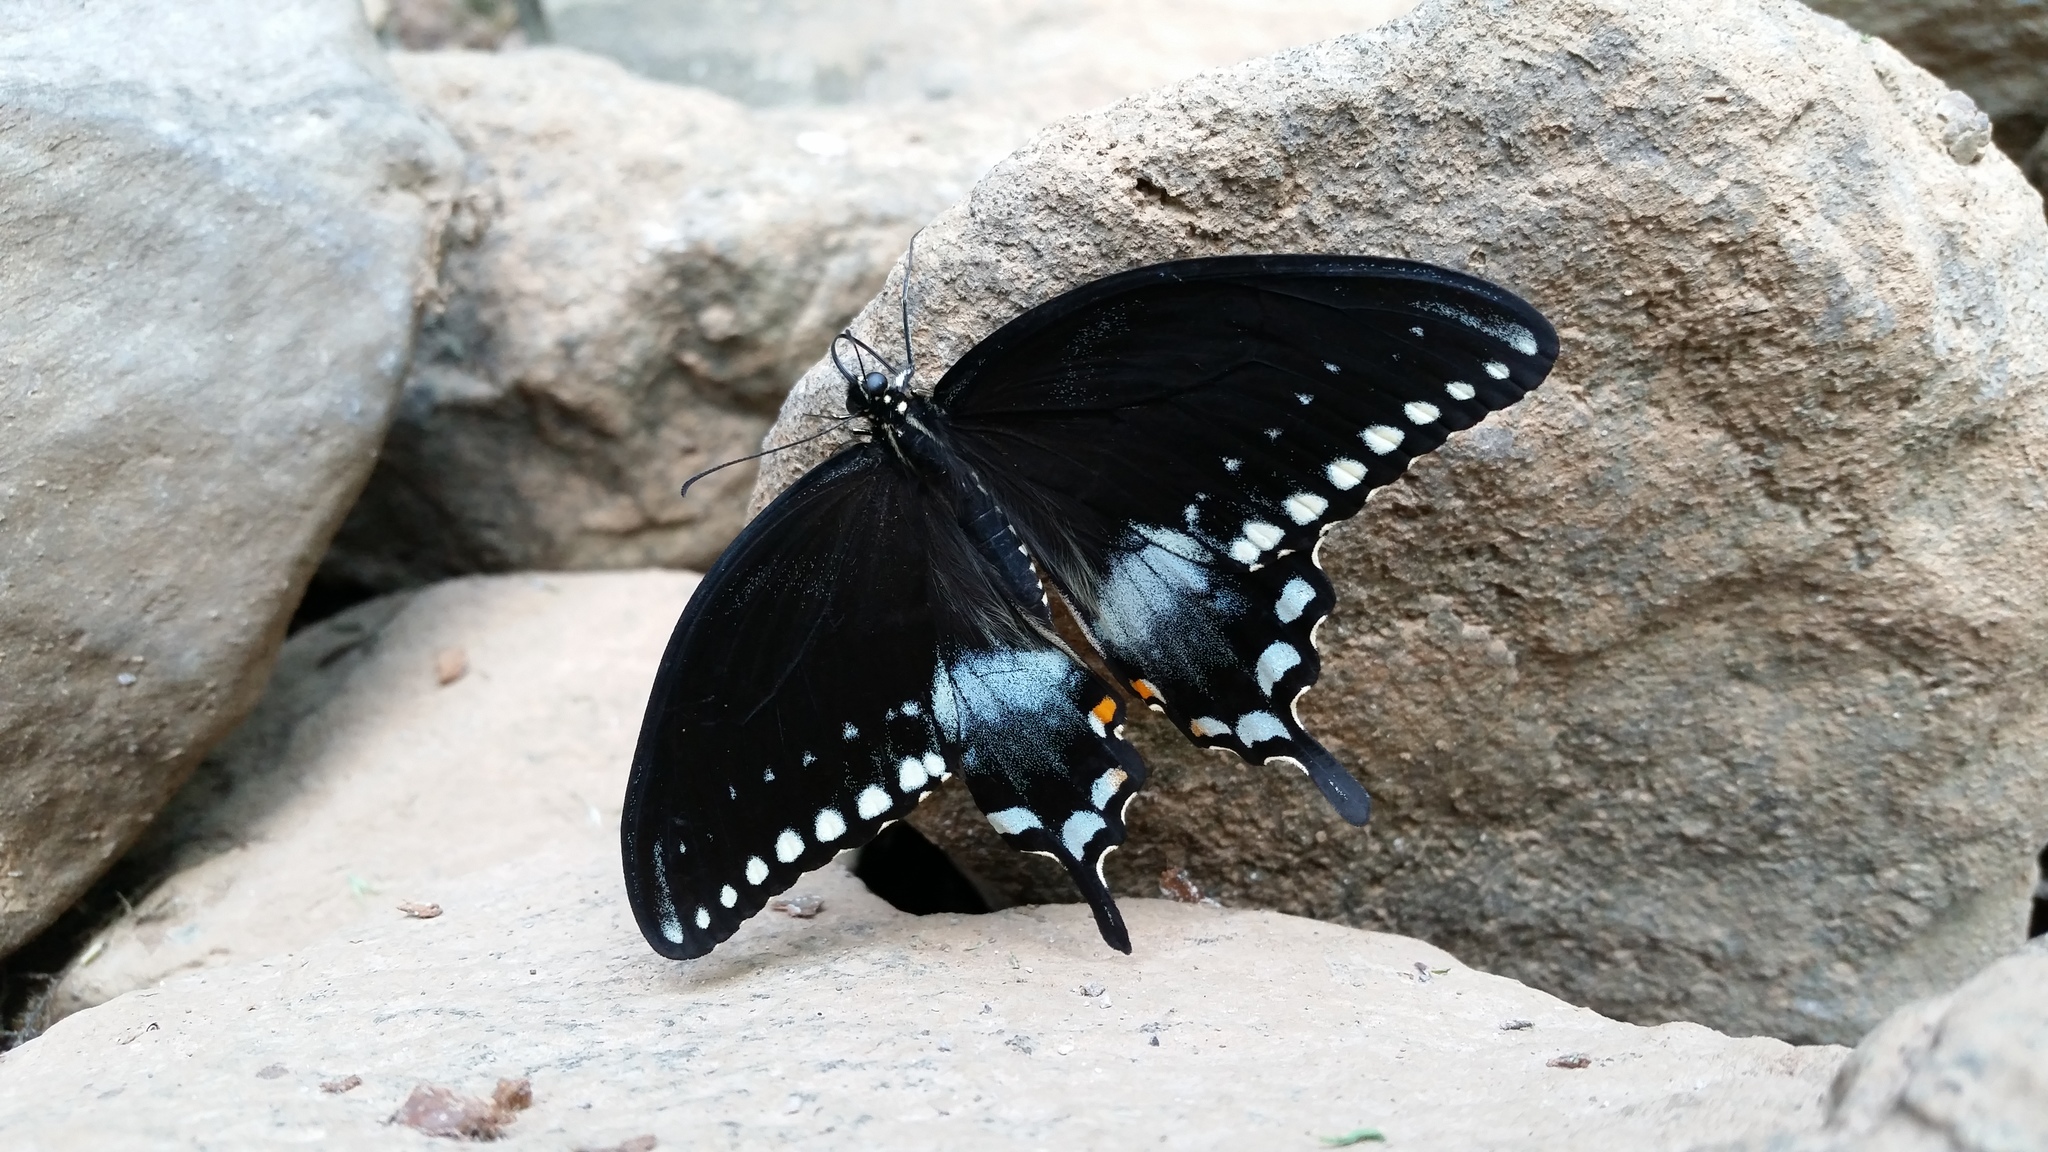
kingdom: Animalia
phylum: Arthropoda
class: Insecta
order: Lepidoptera
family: Papilionidae
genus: Papilio
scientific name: Papilio troilus
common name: Spicebush swallowtail
